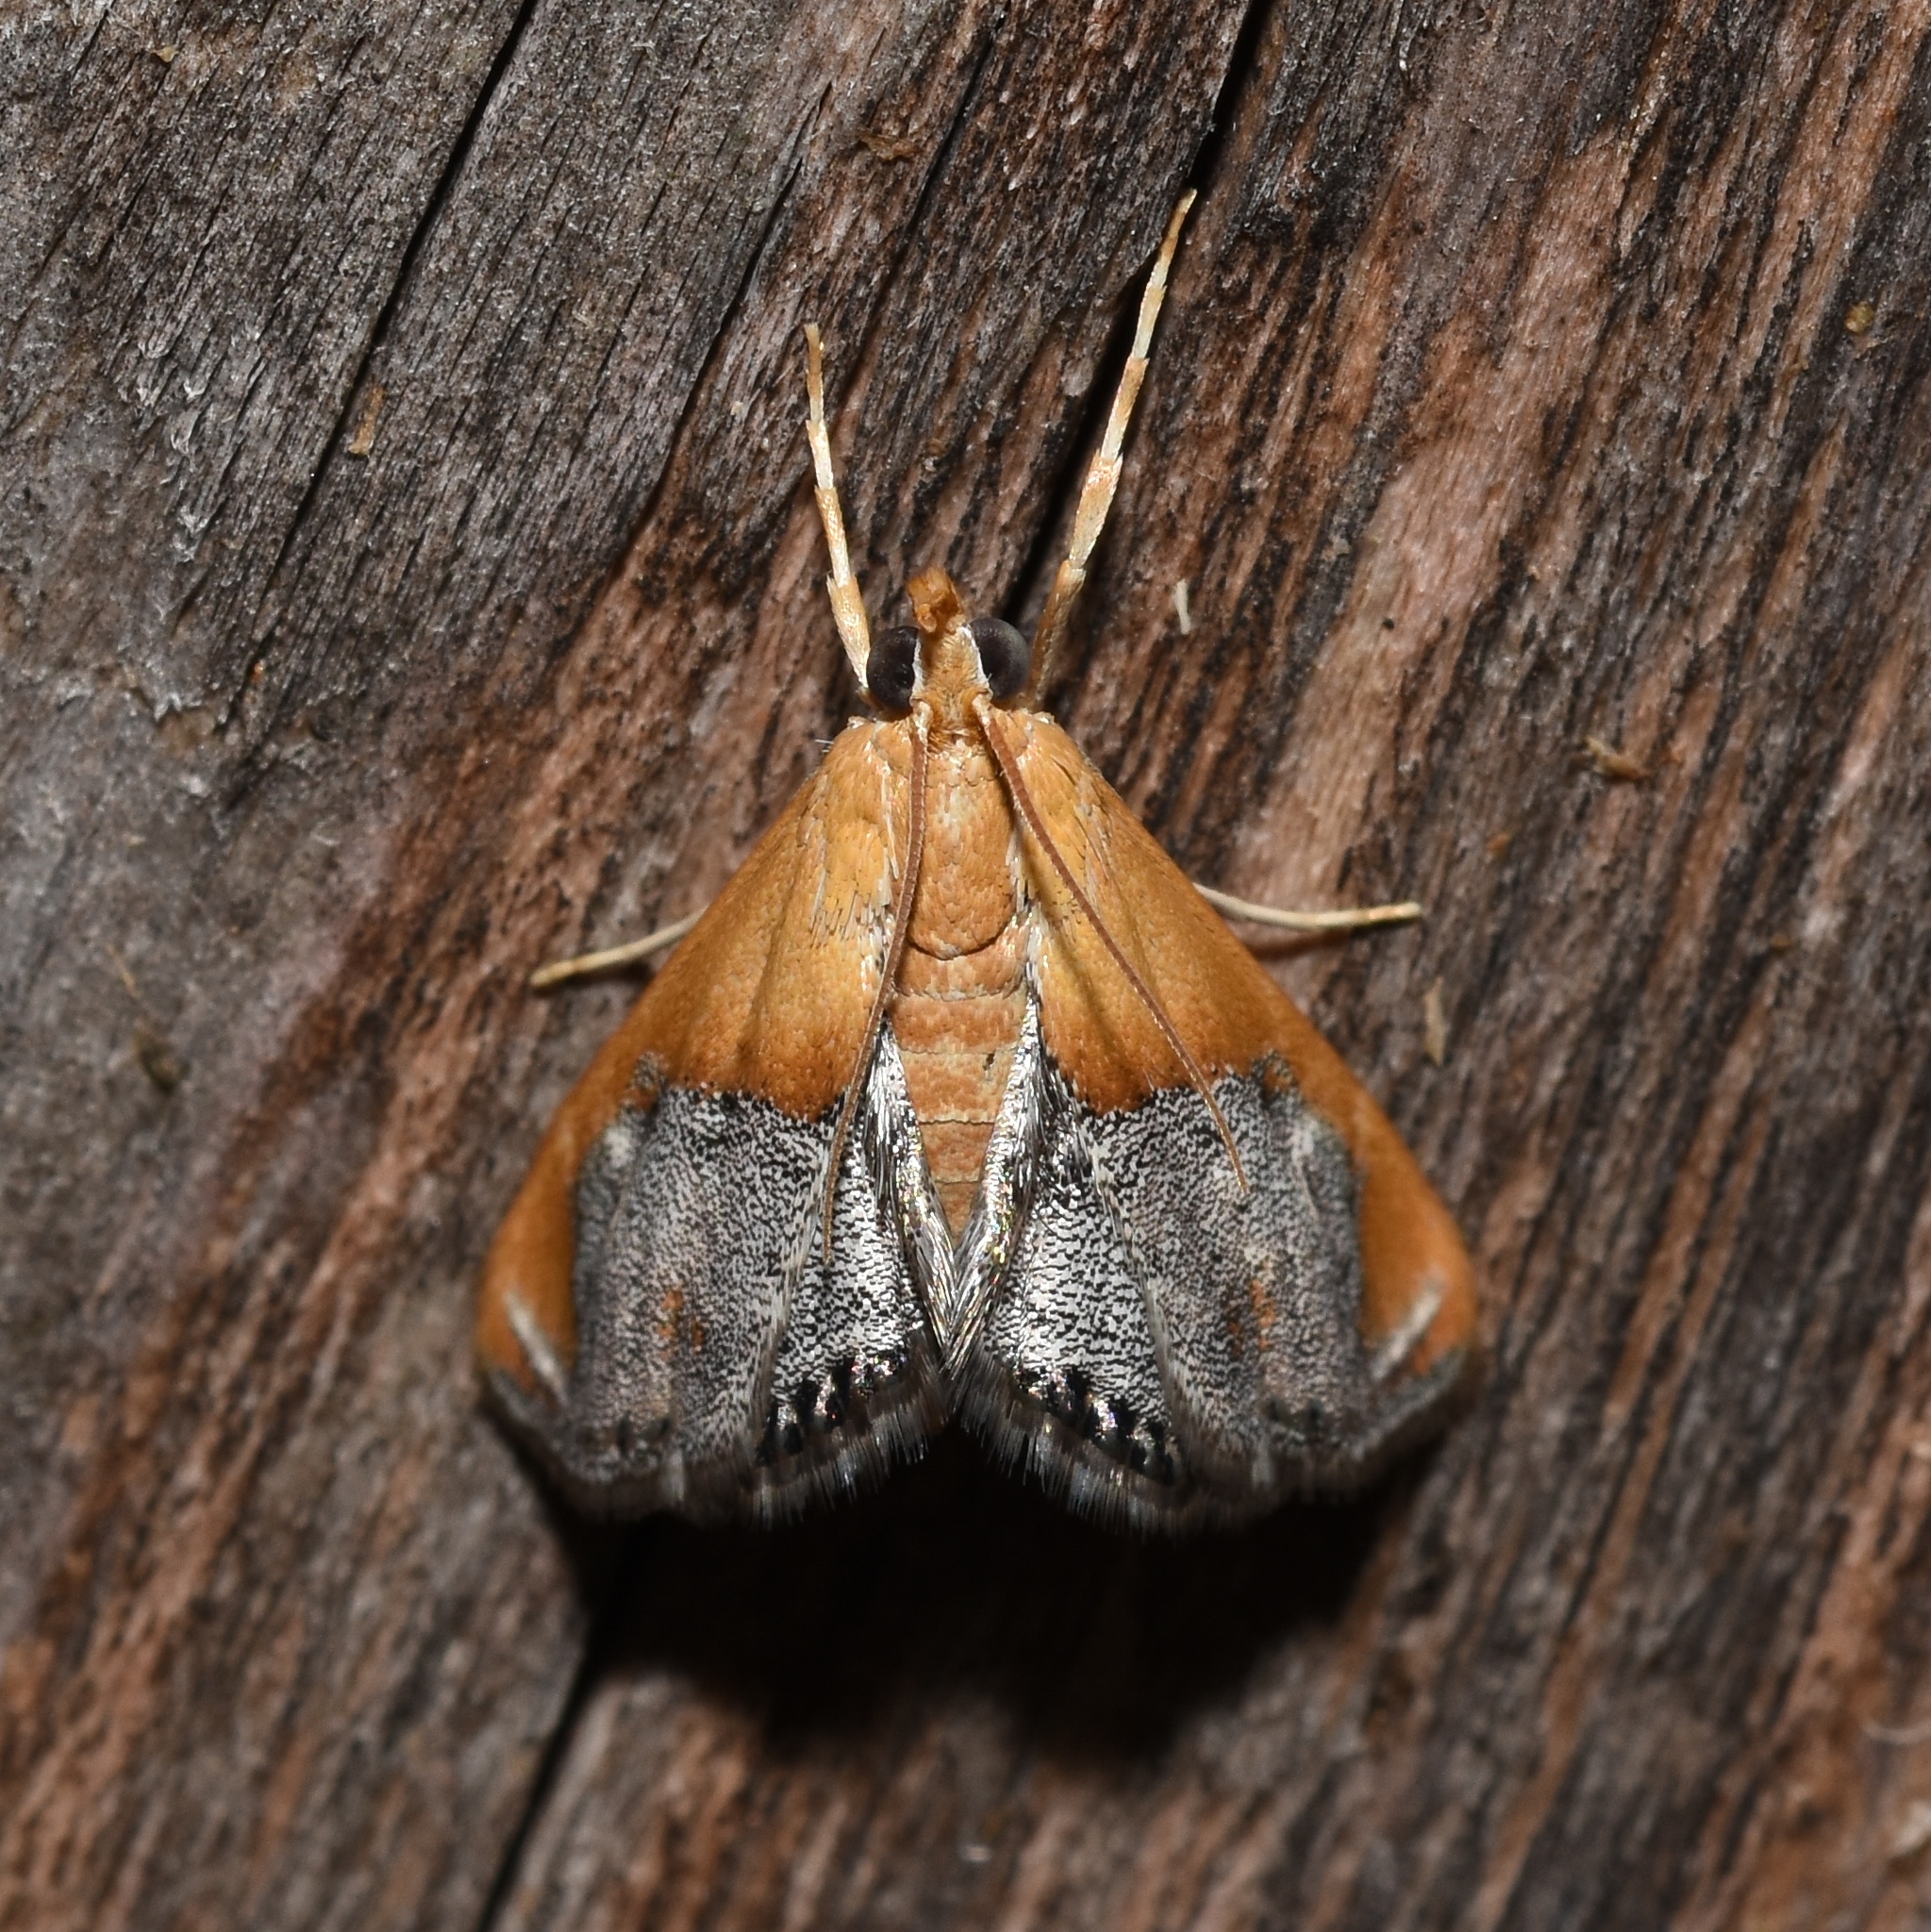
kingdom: Animalia
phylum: Arthropoda
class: Insecta
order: Lepidoptera
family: Crambidae
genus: Chalcoela
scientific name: Chalcoela iphitalis
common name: Sooty-winged chalcoela moth
